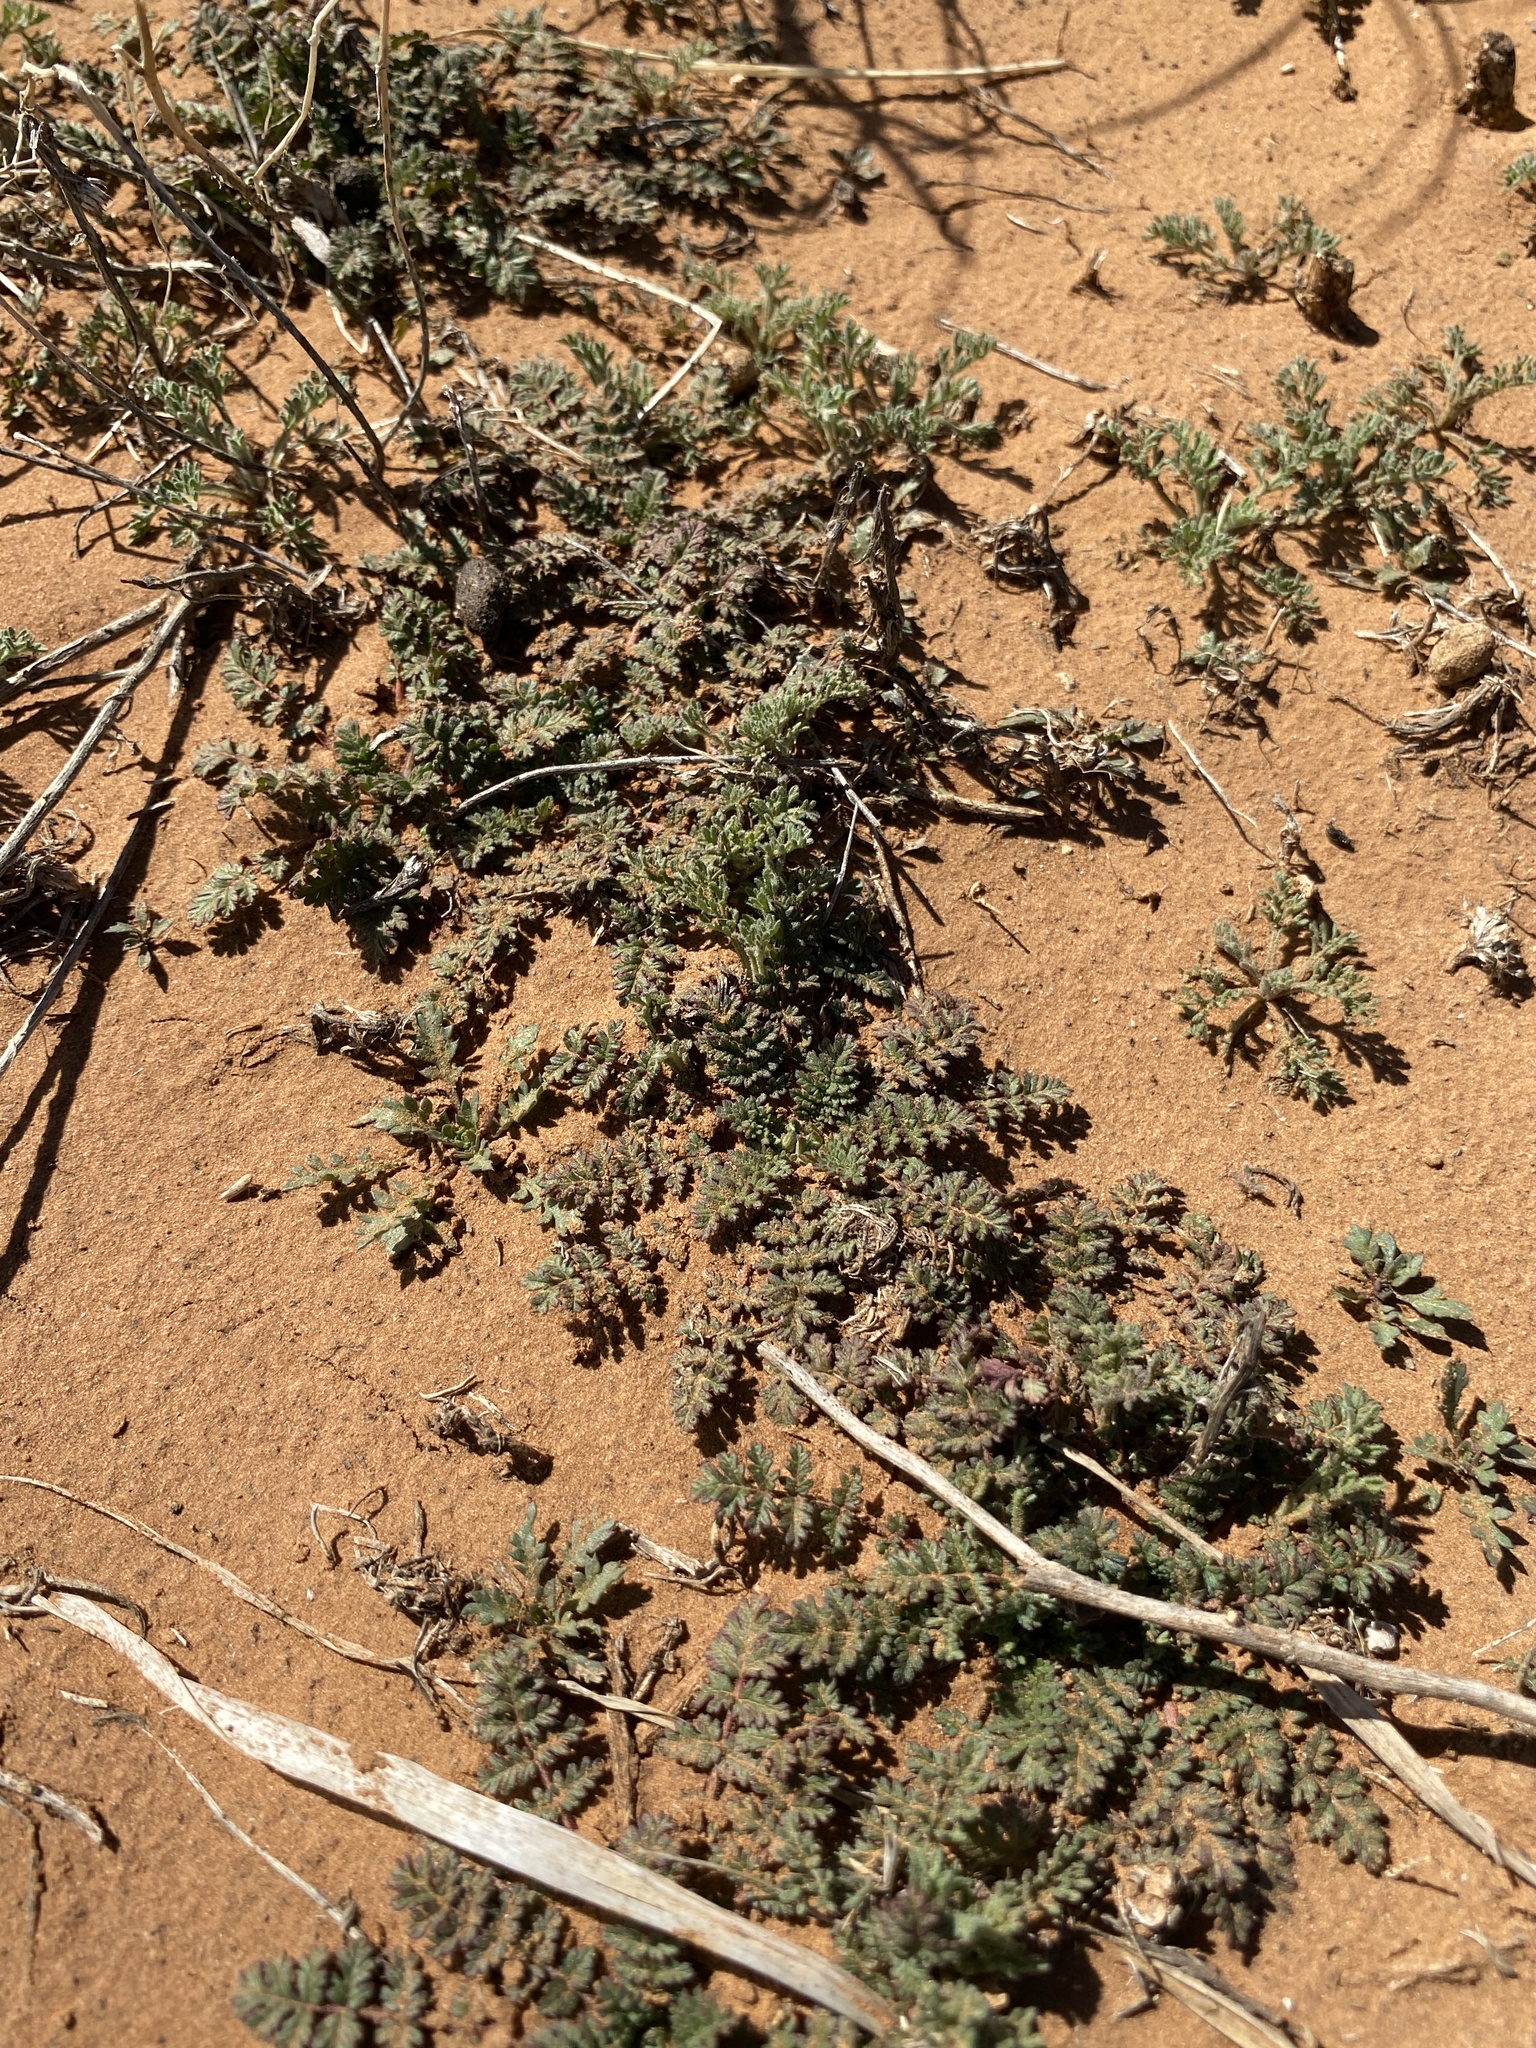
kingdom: Plantae
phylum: Tracheophyta
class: Magnoliopsida
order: Geraniales
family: Geraniaceae
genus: Erodium
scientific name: Erodium cicutarium
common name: Common stork's-bill
